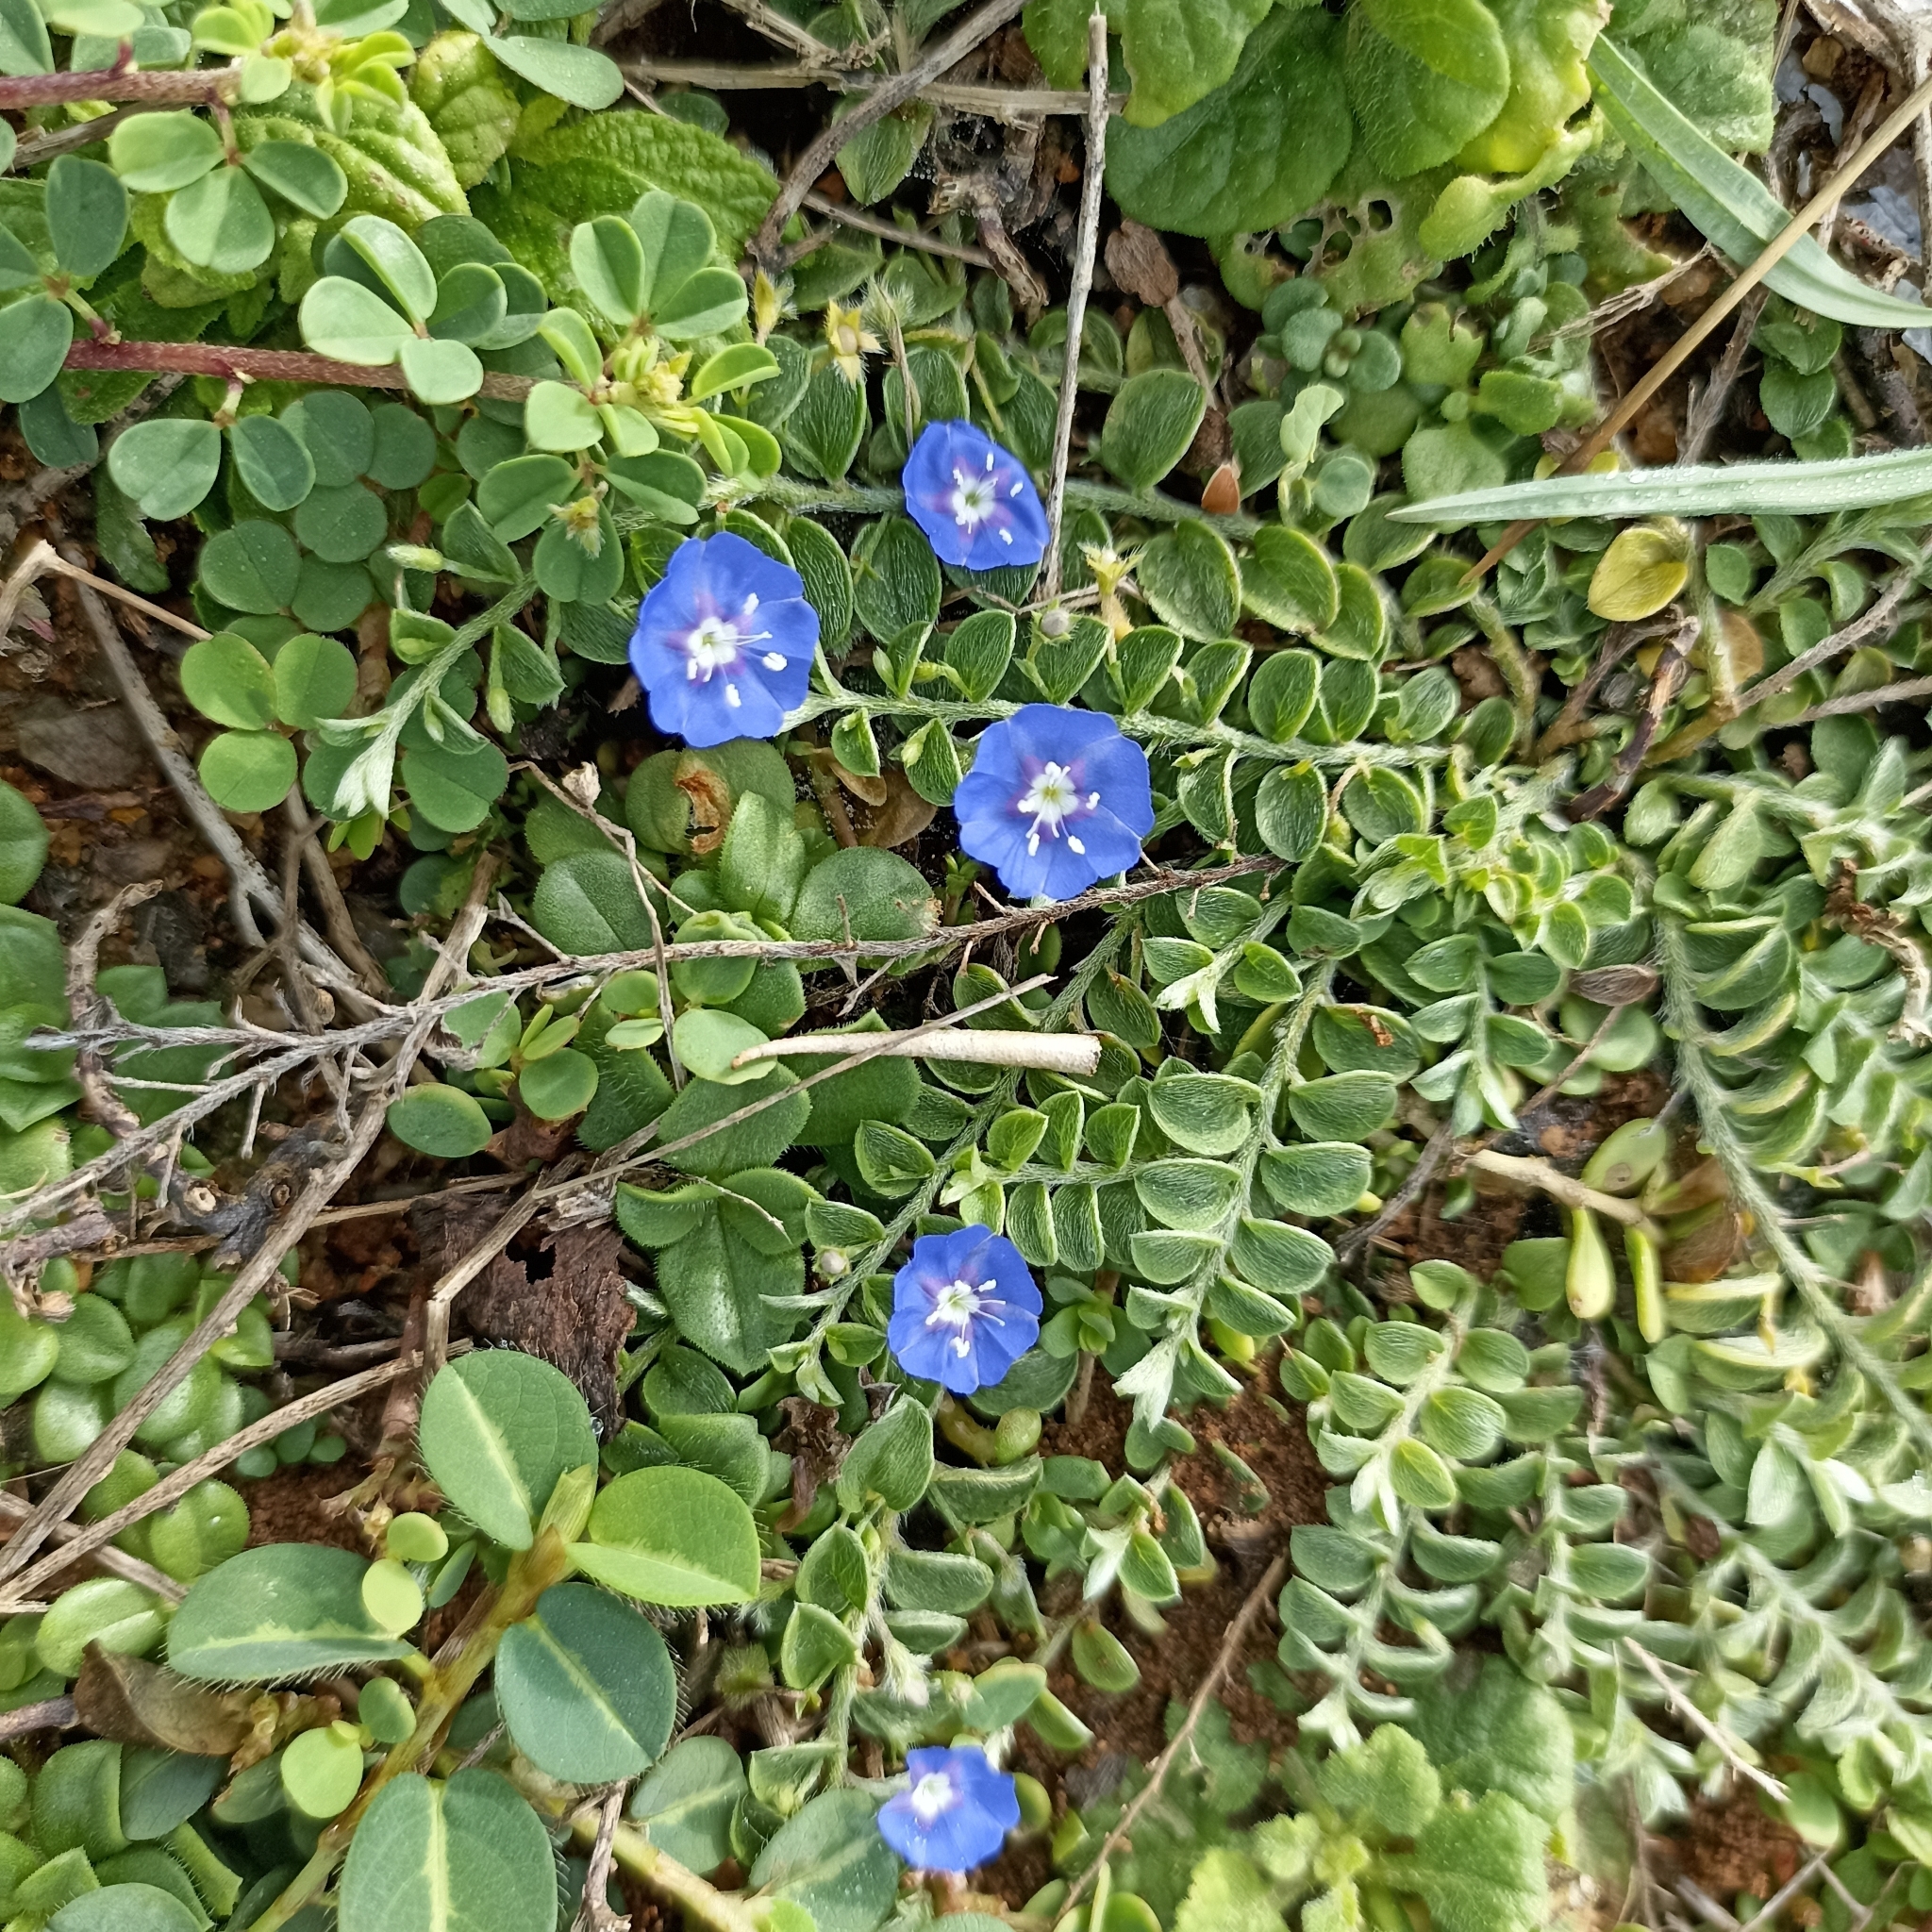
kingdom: Plantae
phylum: Tracheophyta
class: Magnoliopsida
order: Solanales
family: Convolvulaceae
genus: Evolvulus
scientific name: Evolvulus alsinoides
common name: Slender dwarf morning-glory
